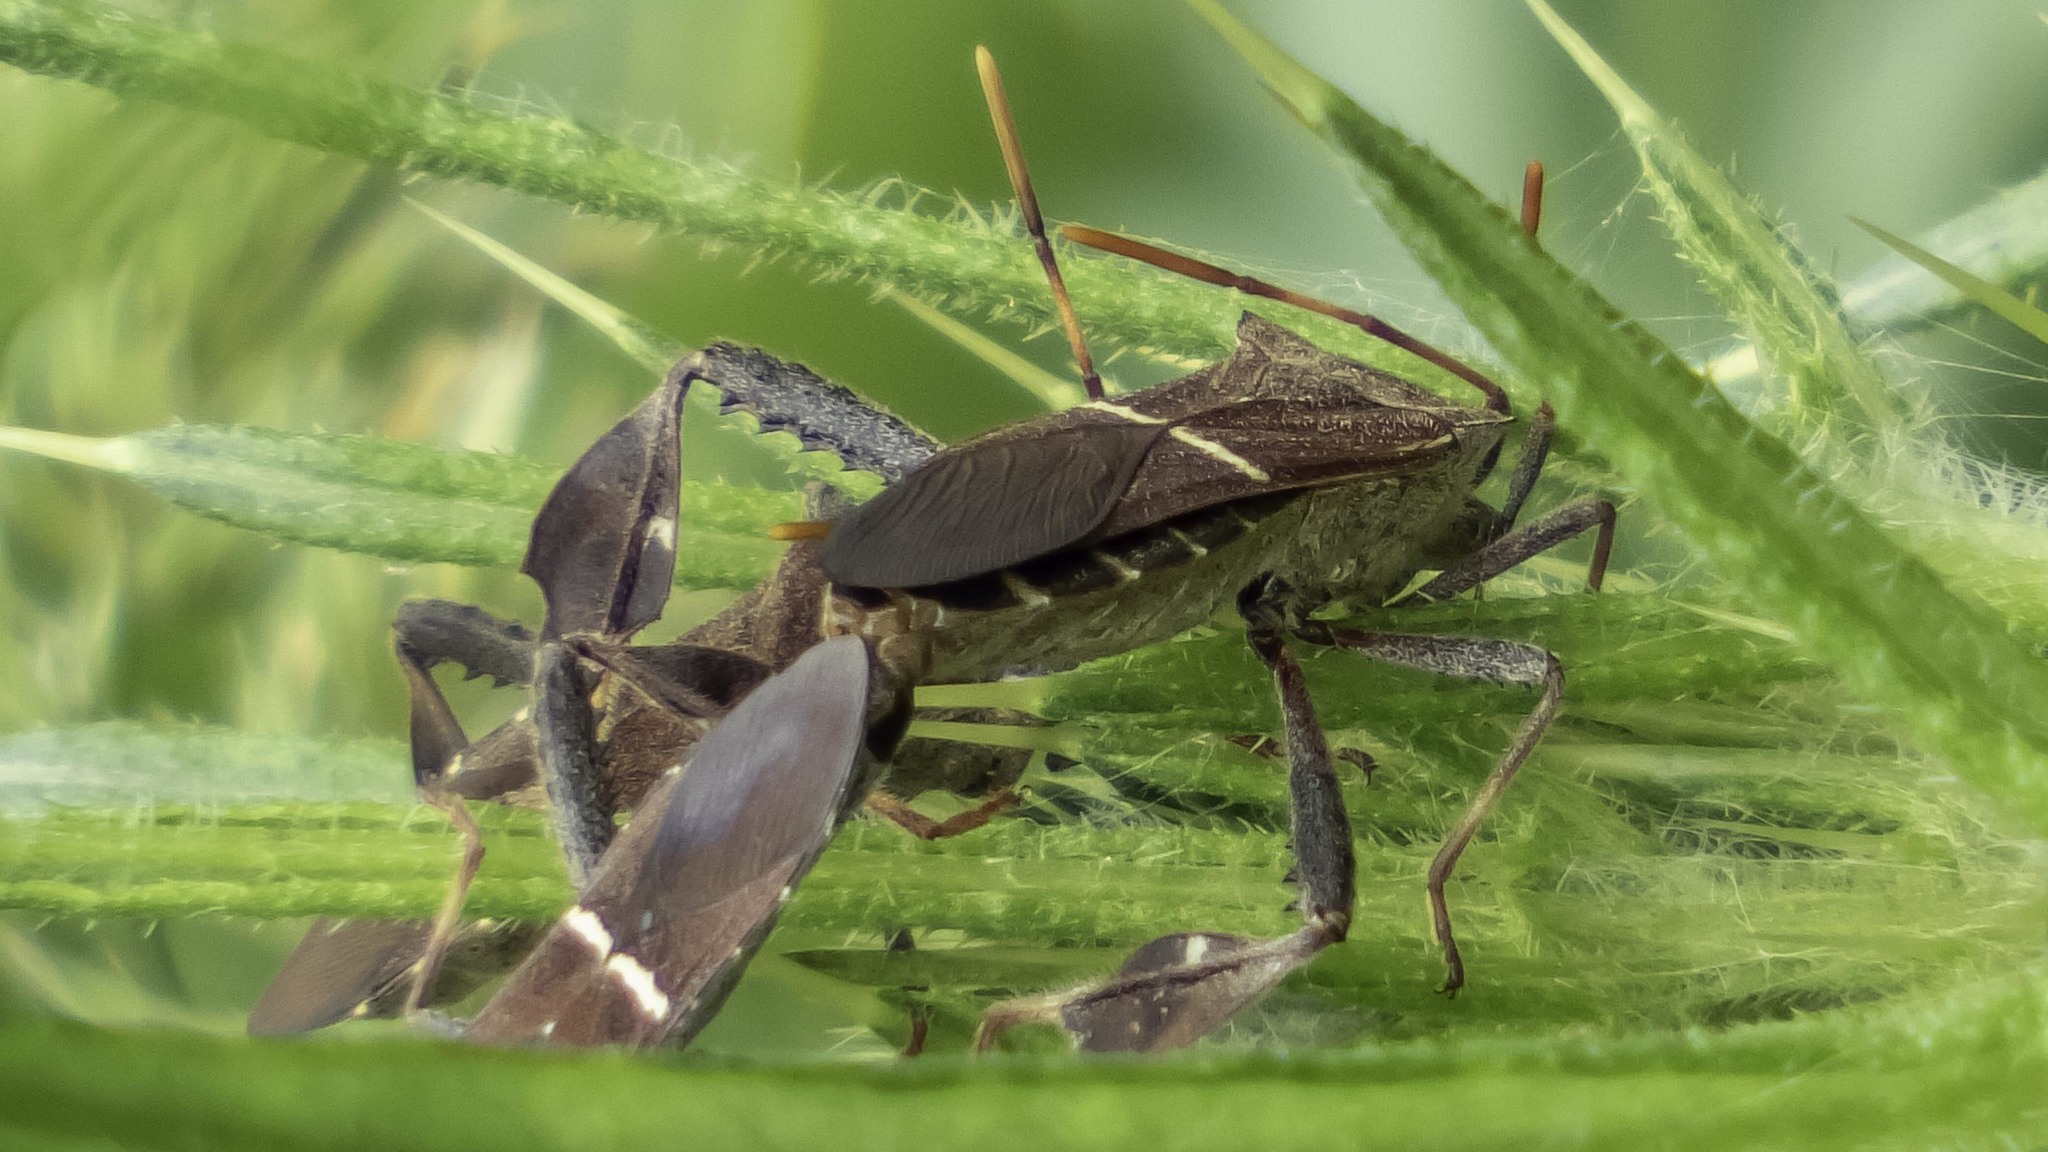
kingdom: Animalia
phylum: Arthropoda
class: Insecta
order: Hemiptera
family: Coreidae
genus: Leptoglossus
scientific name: Leptoglossus phyllopus
